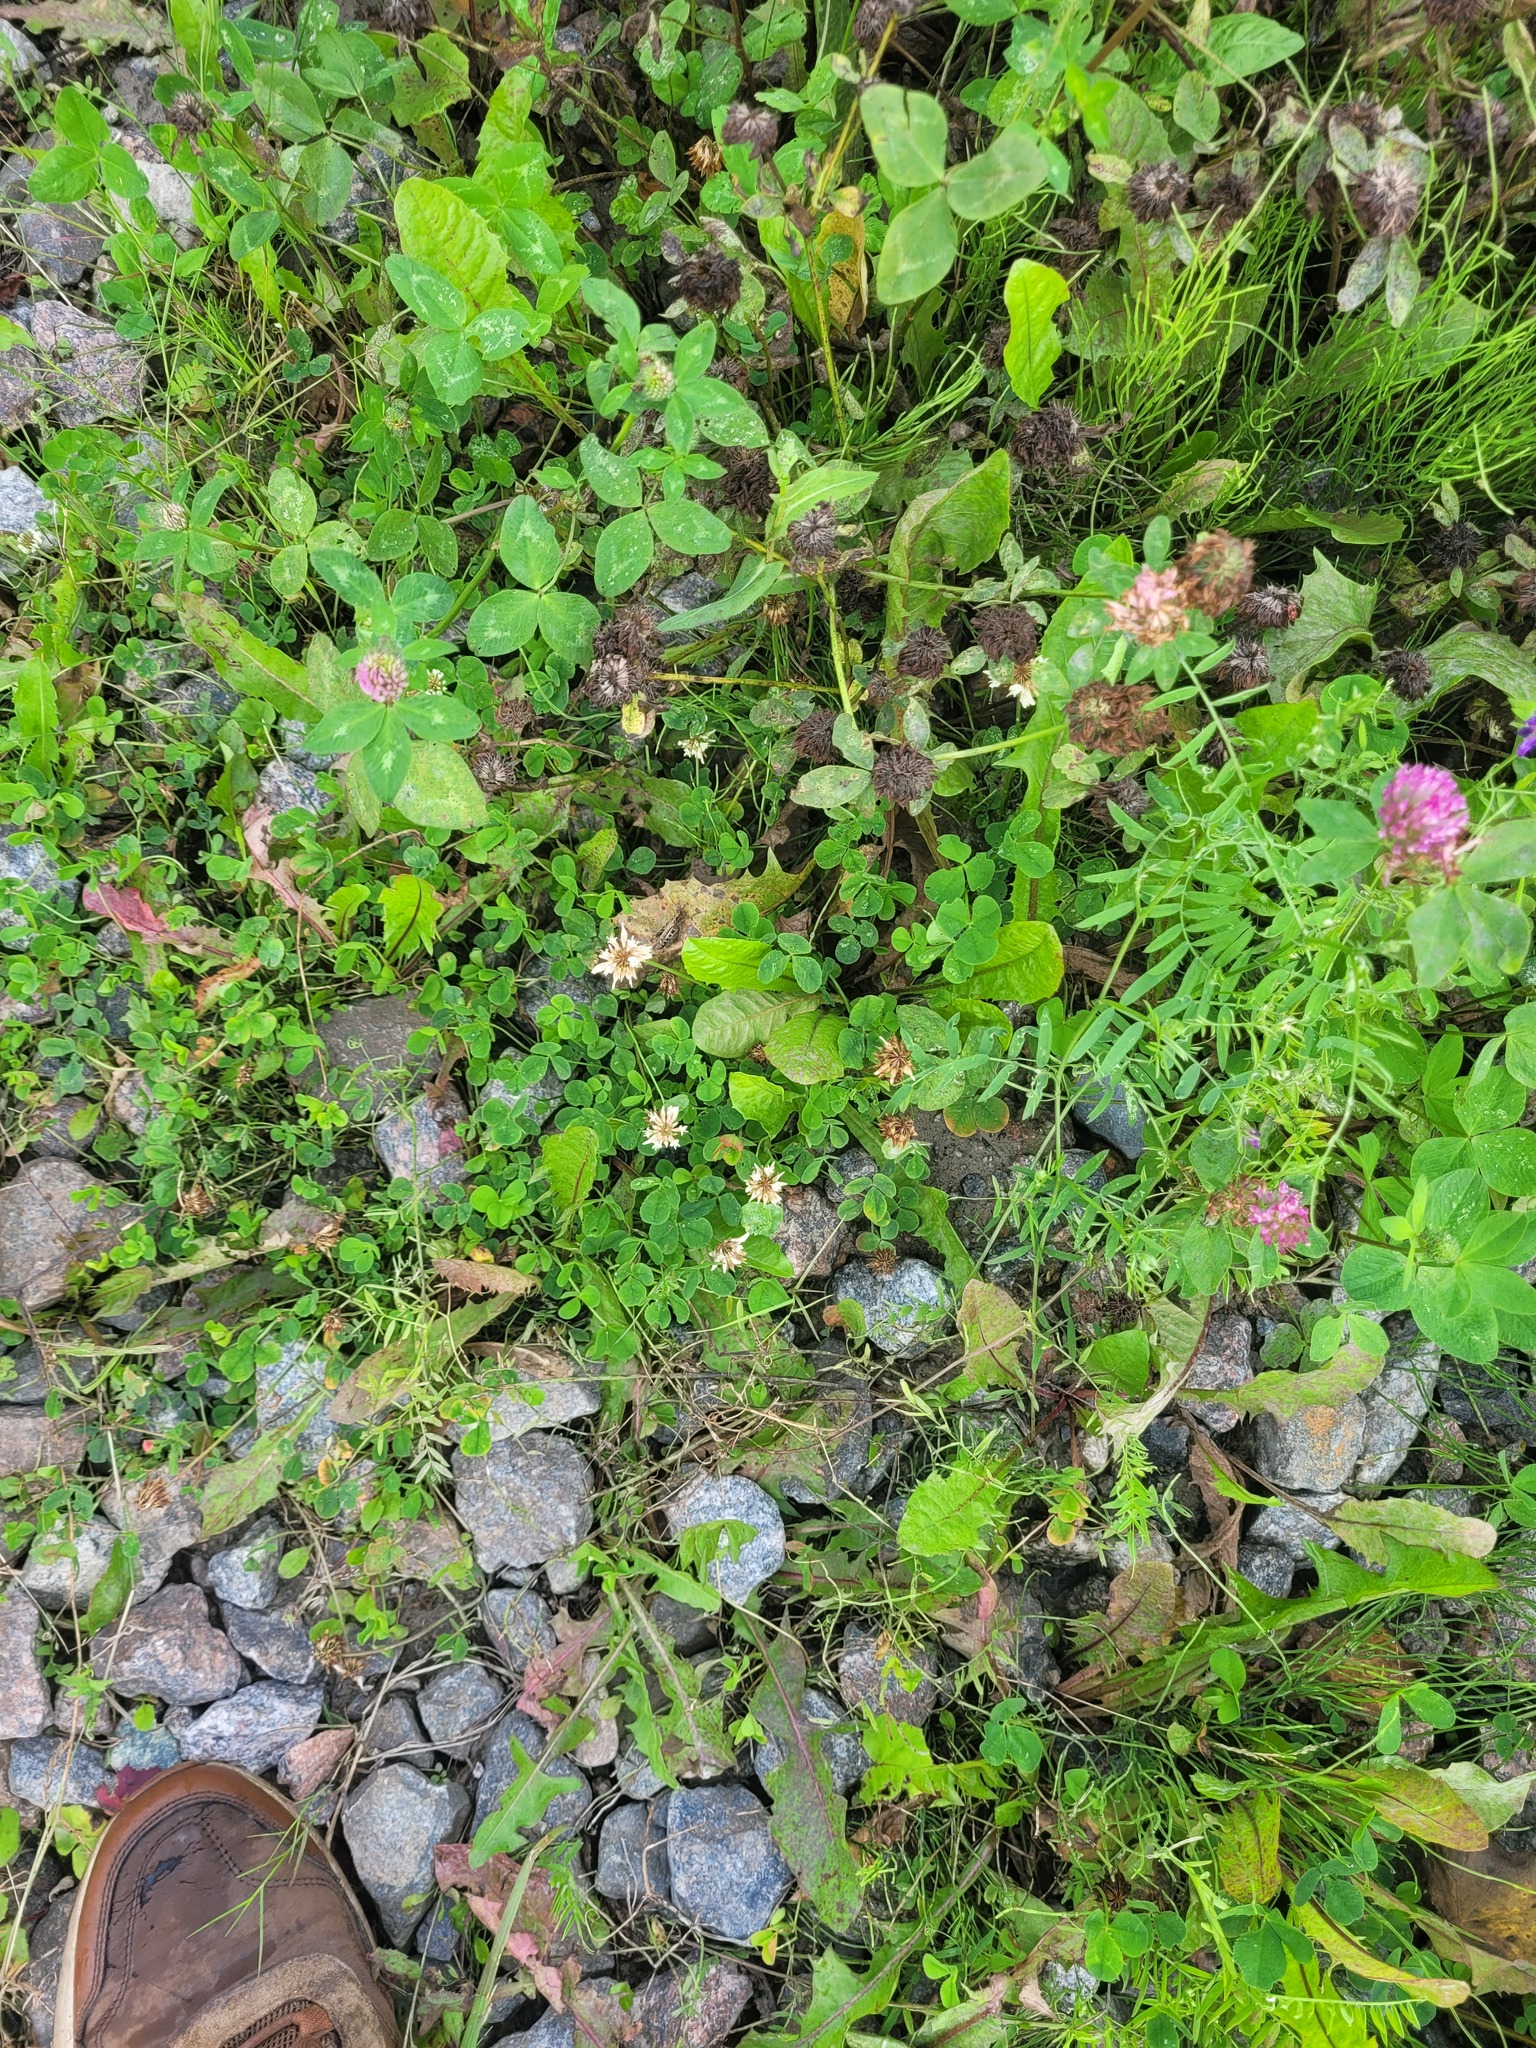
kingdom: Plantae
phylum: Tracheophyta
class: Magnoliopsida
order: Fabales
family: Fabaceae
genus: Trifolium
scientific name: Trifolium repens
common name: White clover
